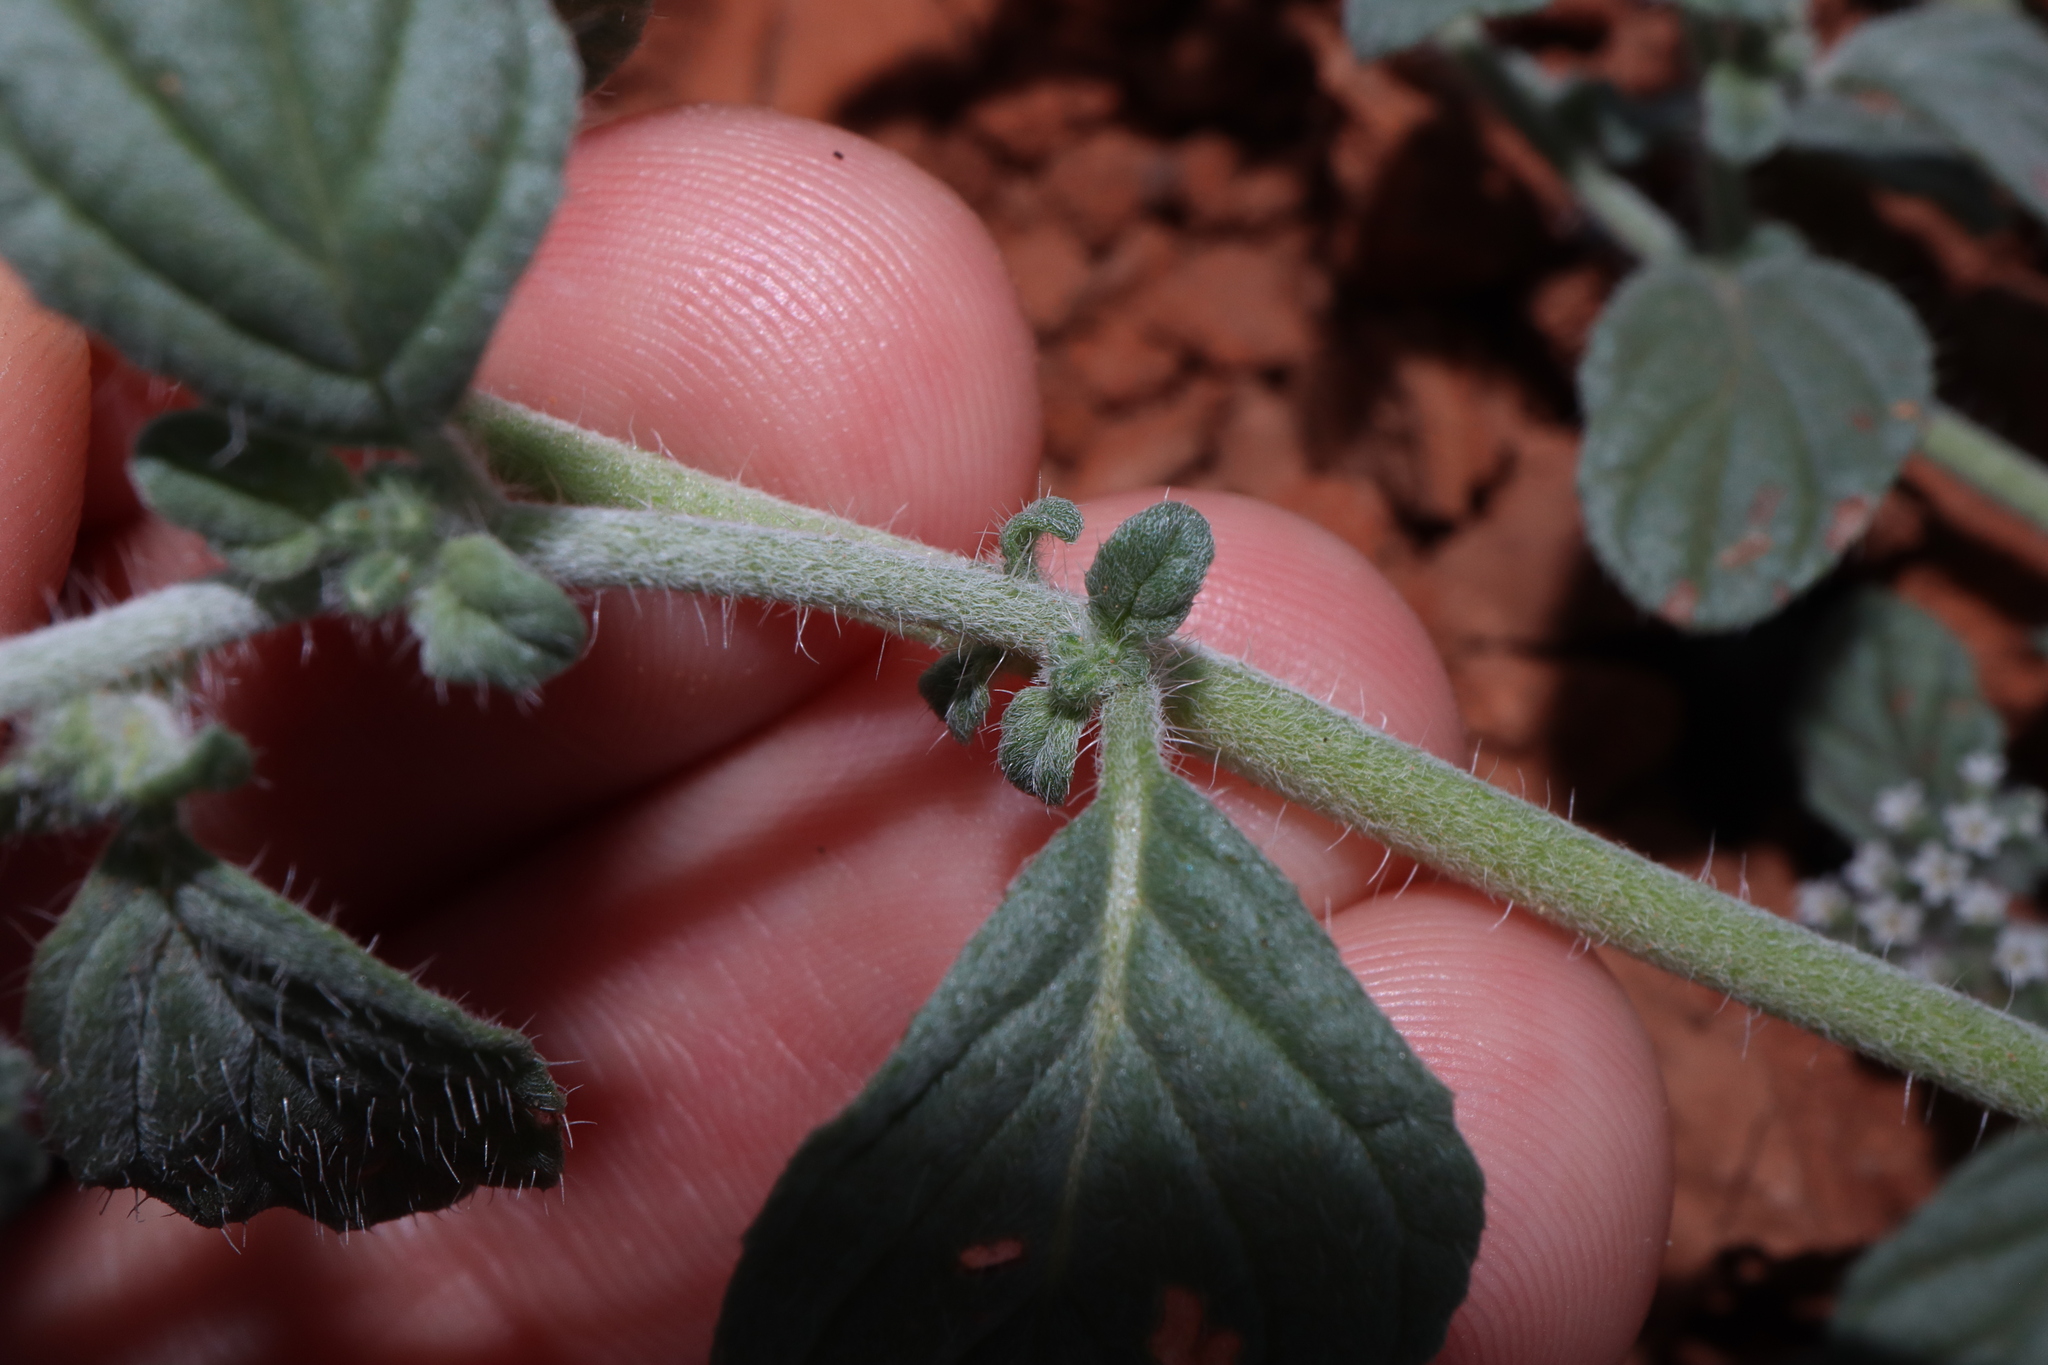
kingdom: Plantae
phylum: Tracheophyta
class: Magnoliopsida
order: Boraginales
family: Heliotropiaceae
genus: Heliotropium
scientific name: Heliotropium europaeum
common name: European heliotrope
